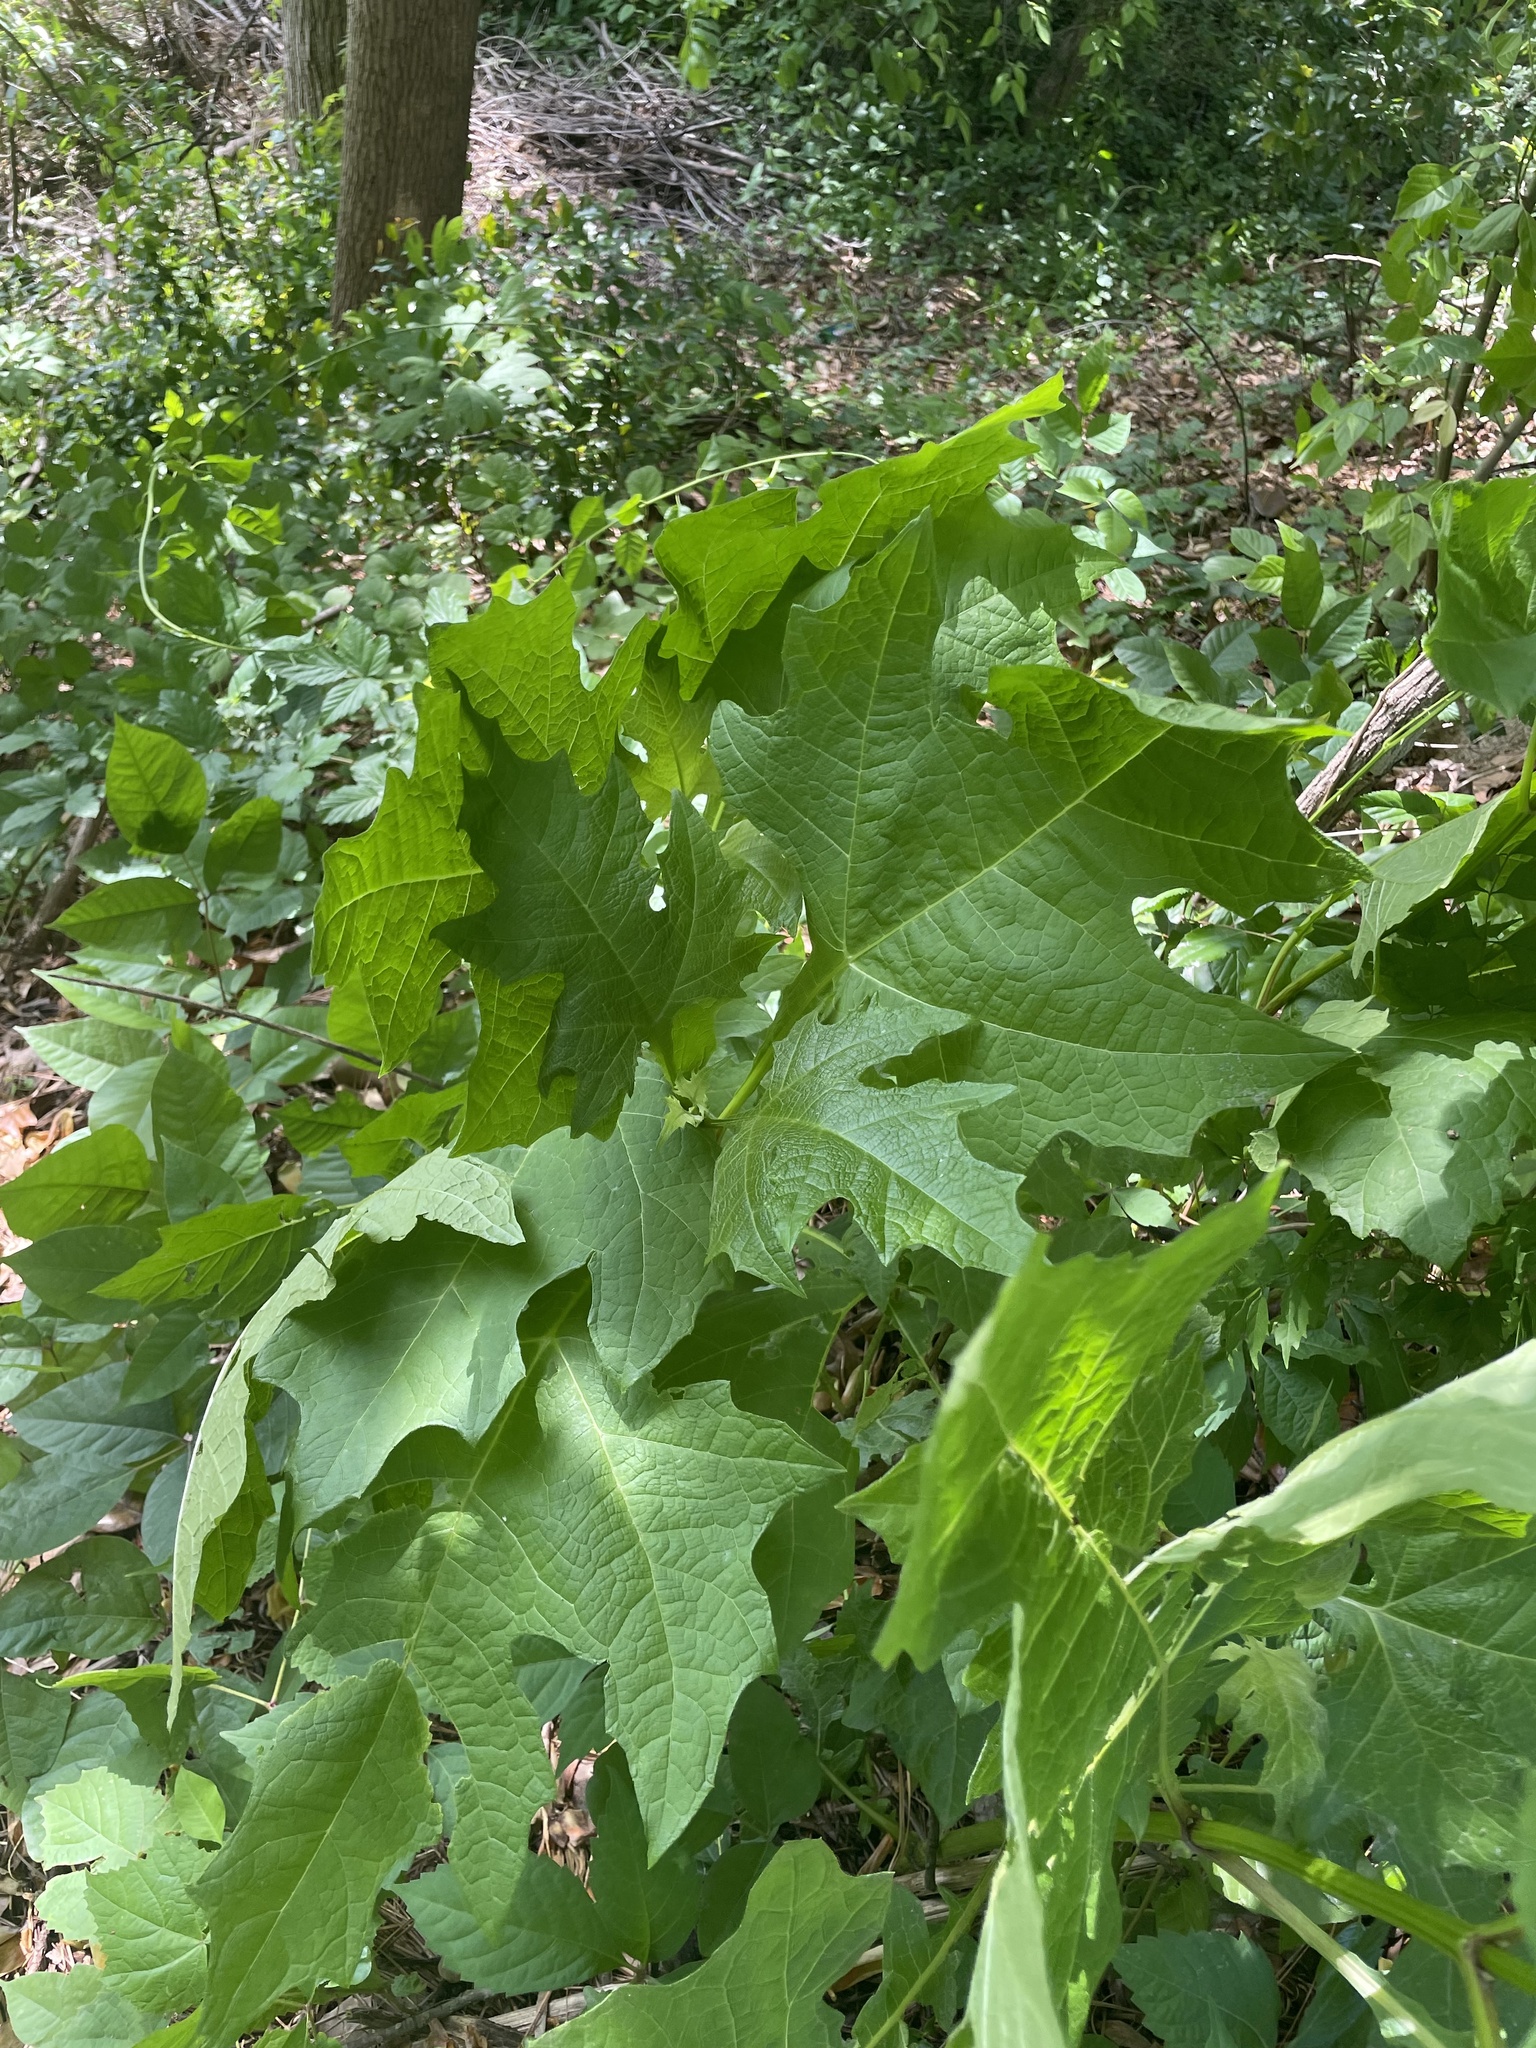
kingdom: Plantae
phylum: Tracheophyta
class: Magnoliopsida
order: Asterales
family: Asteraceae
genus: Smallanthus
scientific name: Smallanthus uvedalia
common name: Bear's-foot
